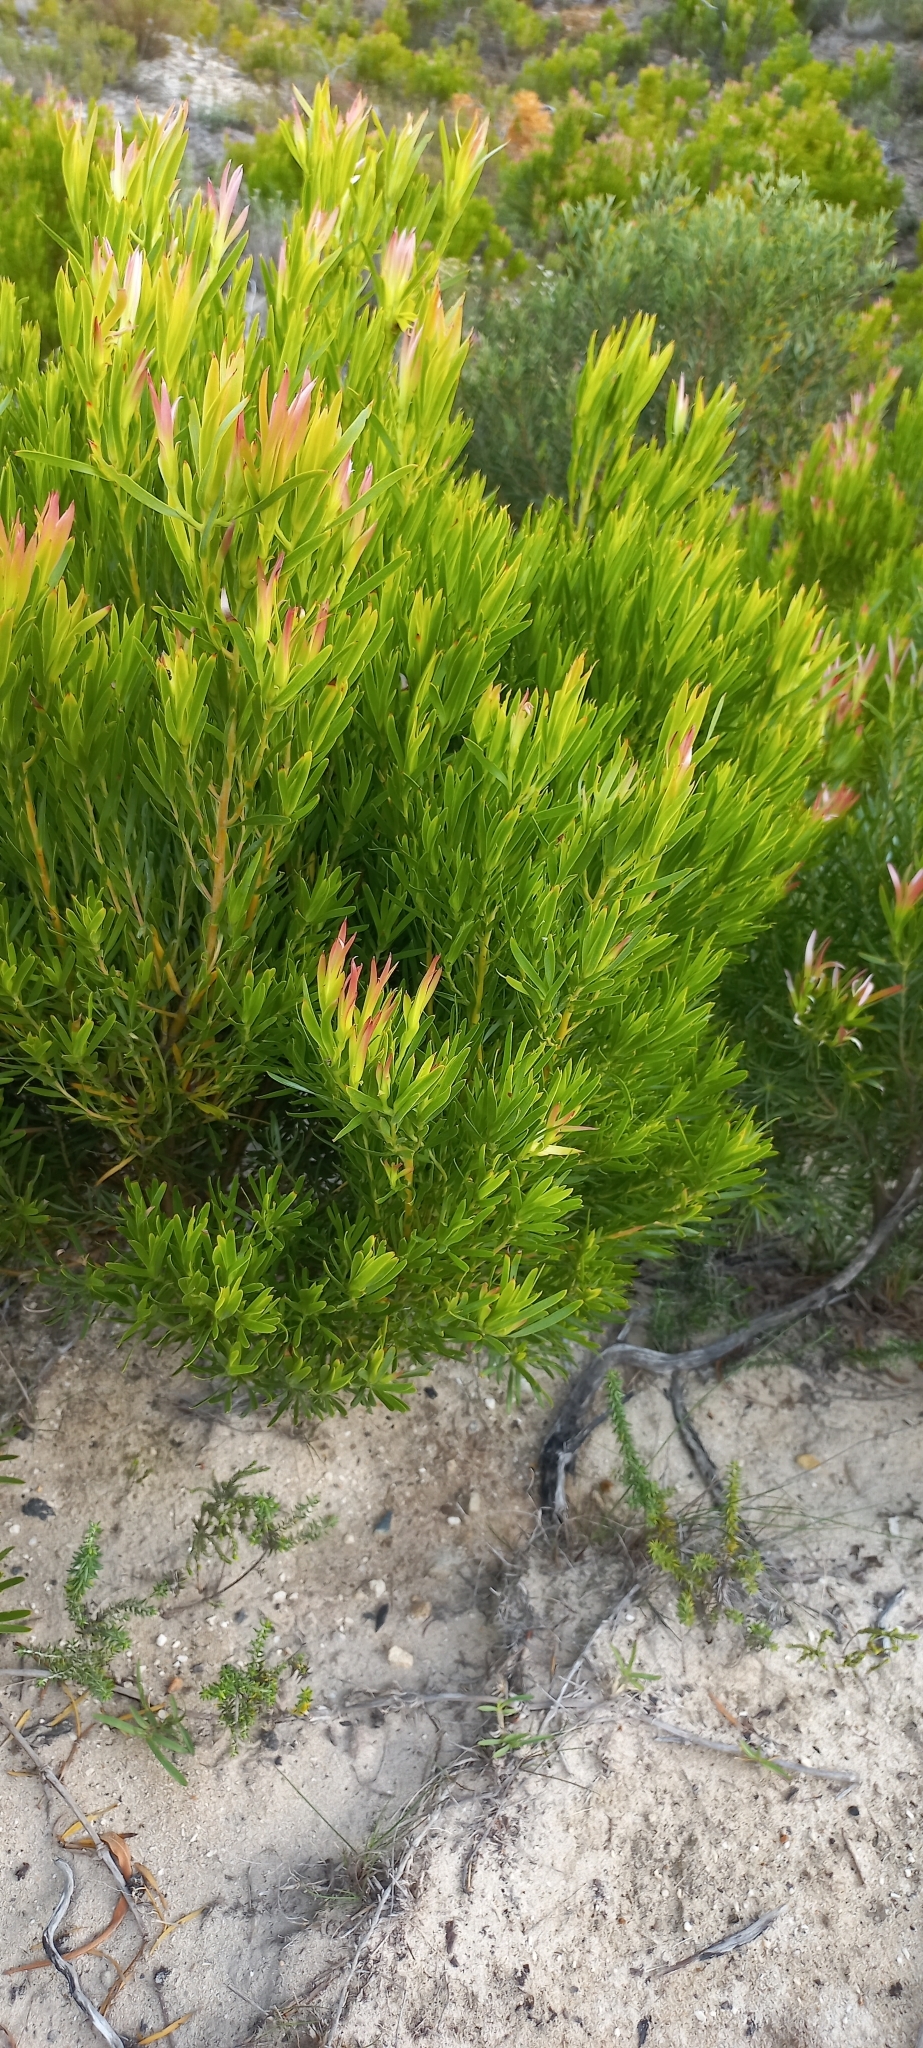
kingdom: Plantae
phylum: Tracheophyta
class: Magnoliopsida
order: Proteales
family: Proteaceae
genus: Leucadendron
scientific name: Leucadendron coniferum
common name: Dune conebush
